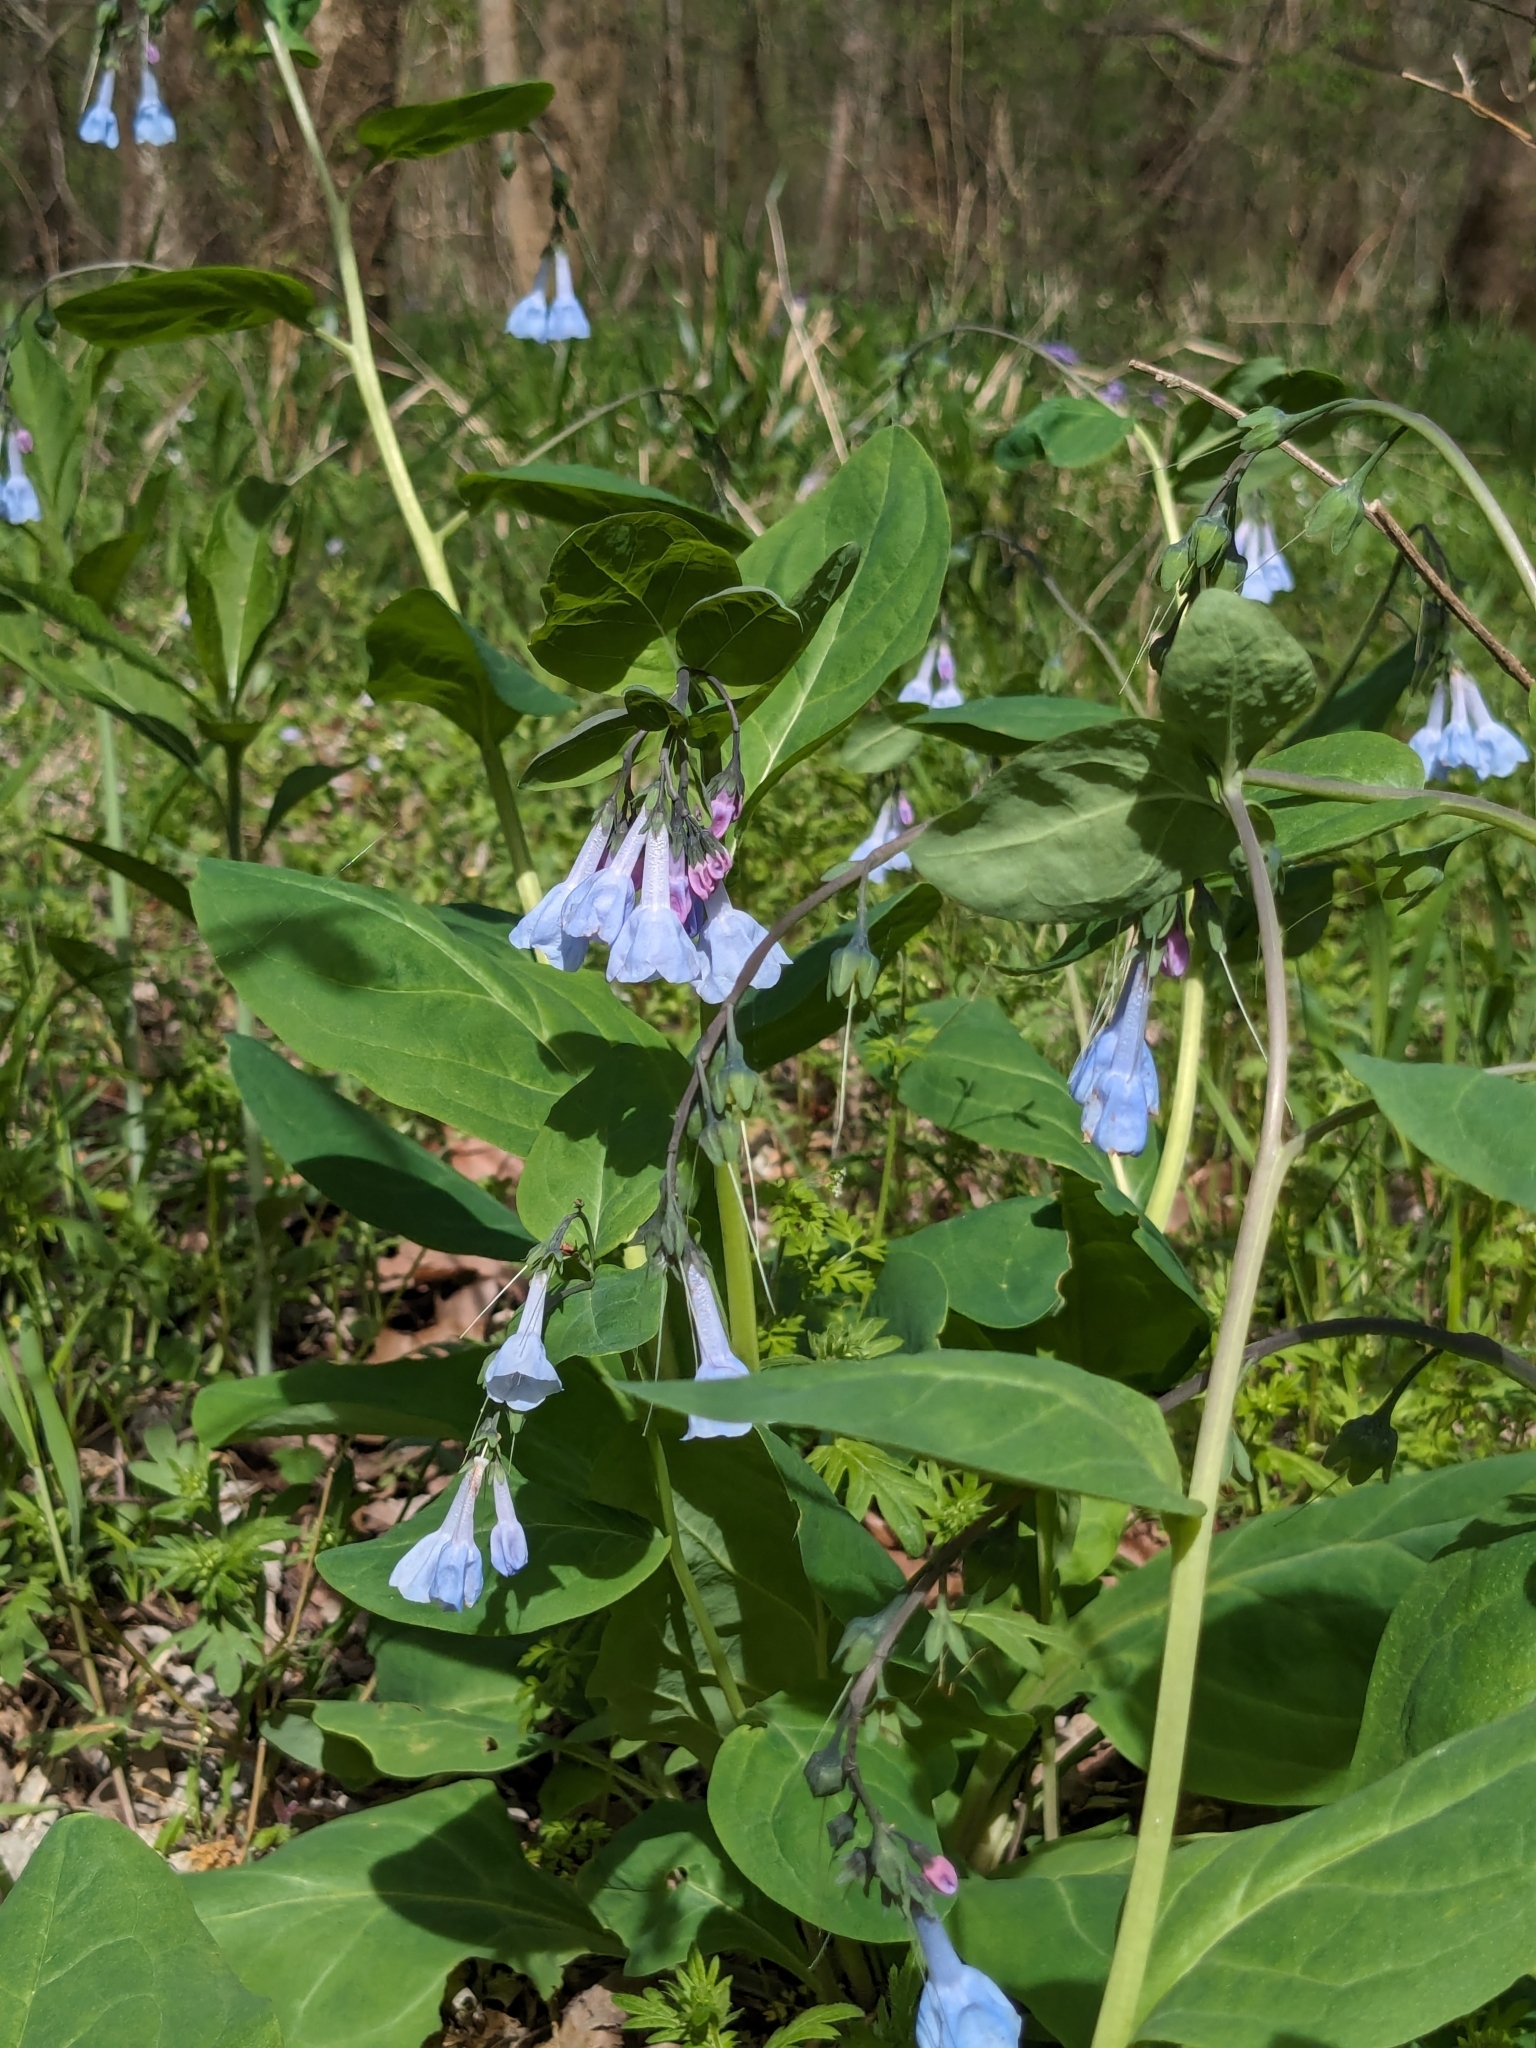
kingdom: Plantae
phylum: Tracheophyta
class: Magnoliopsida
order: Boraginales
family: Boraginaceae
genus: Mertensia
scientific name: Mertensia virginica
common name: Virginia bluebells
